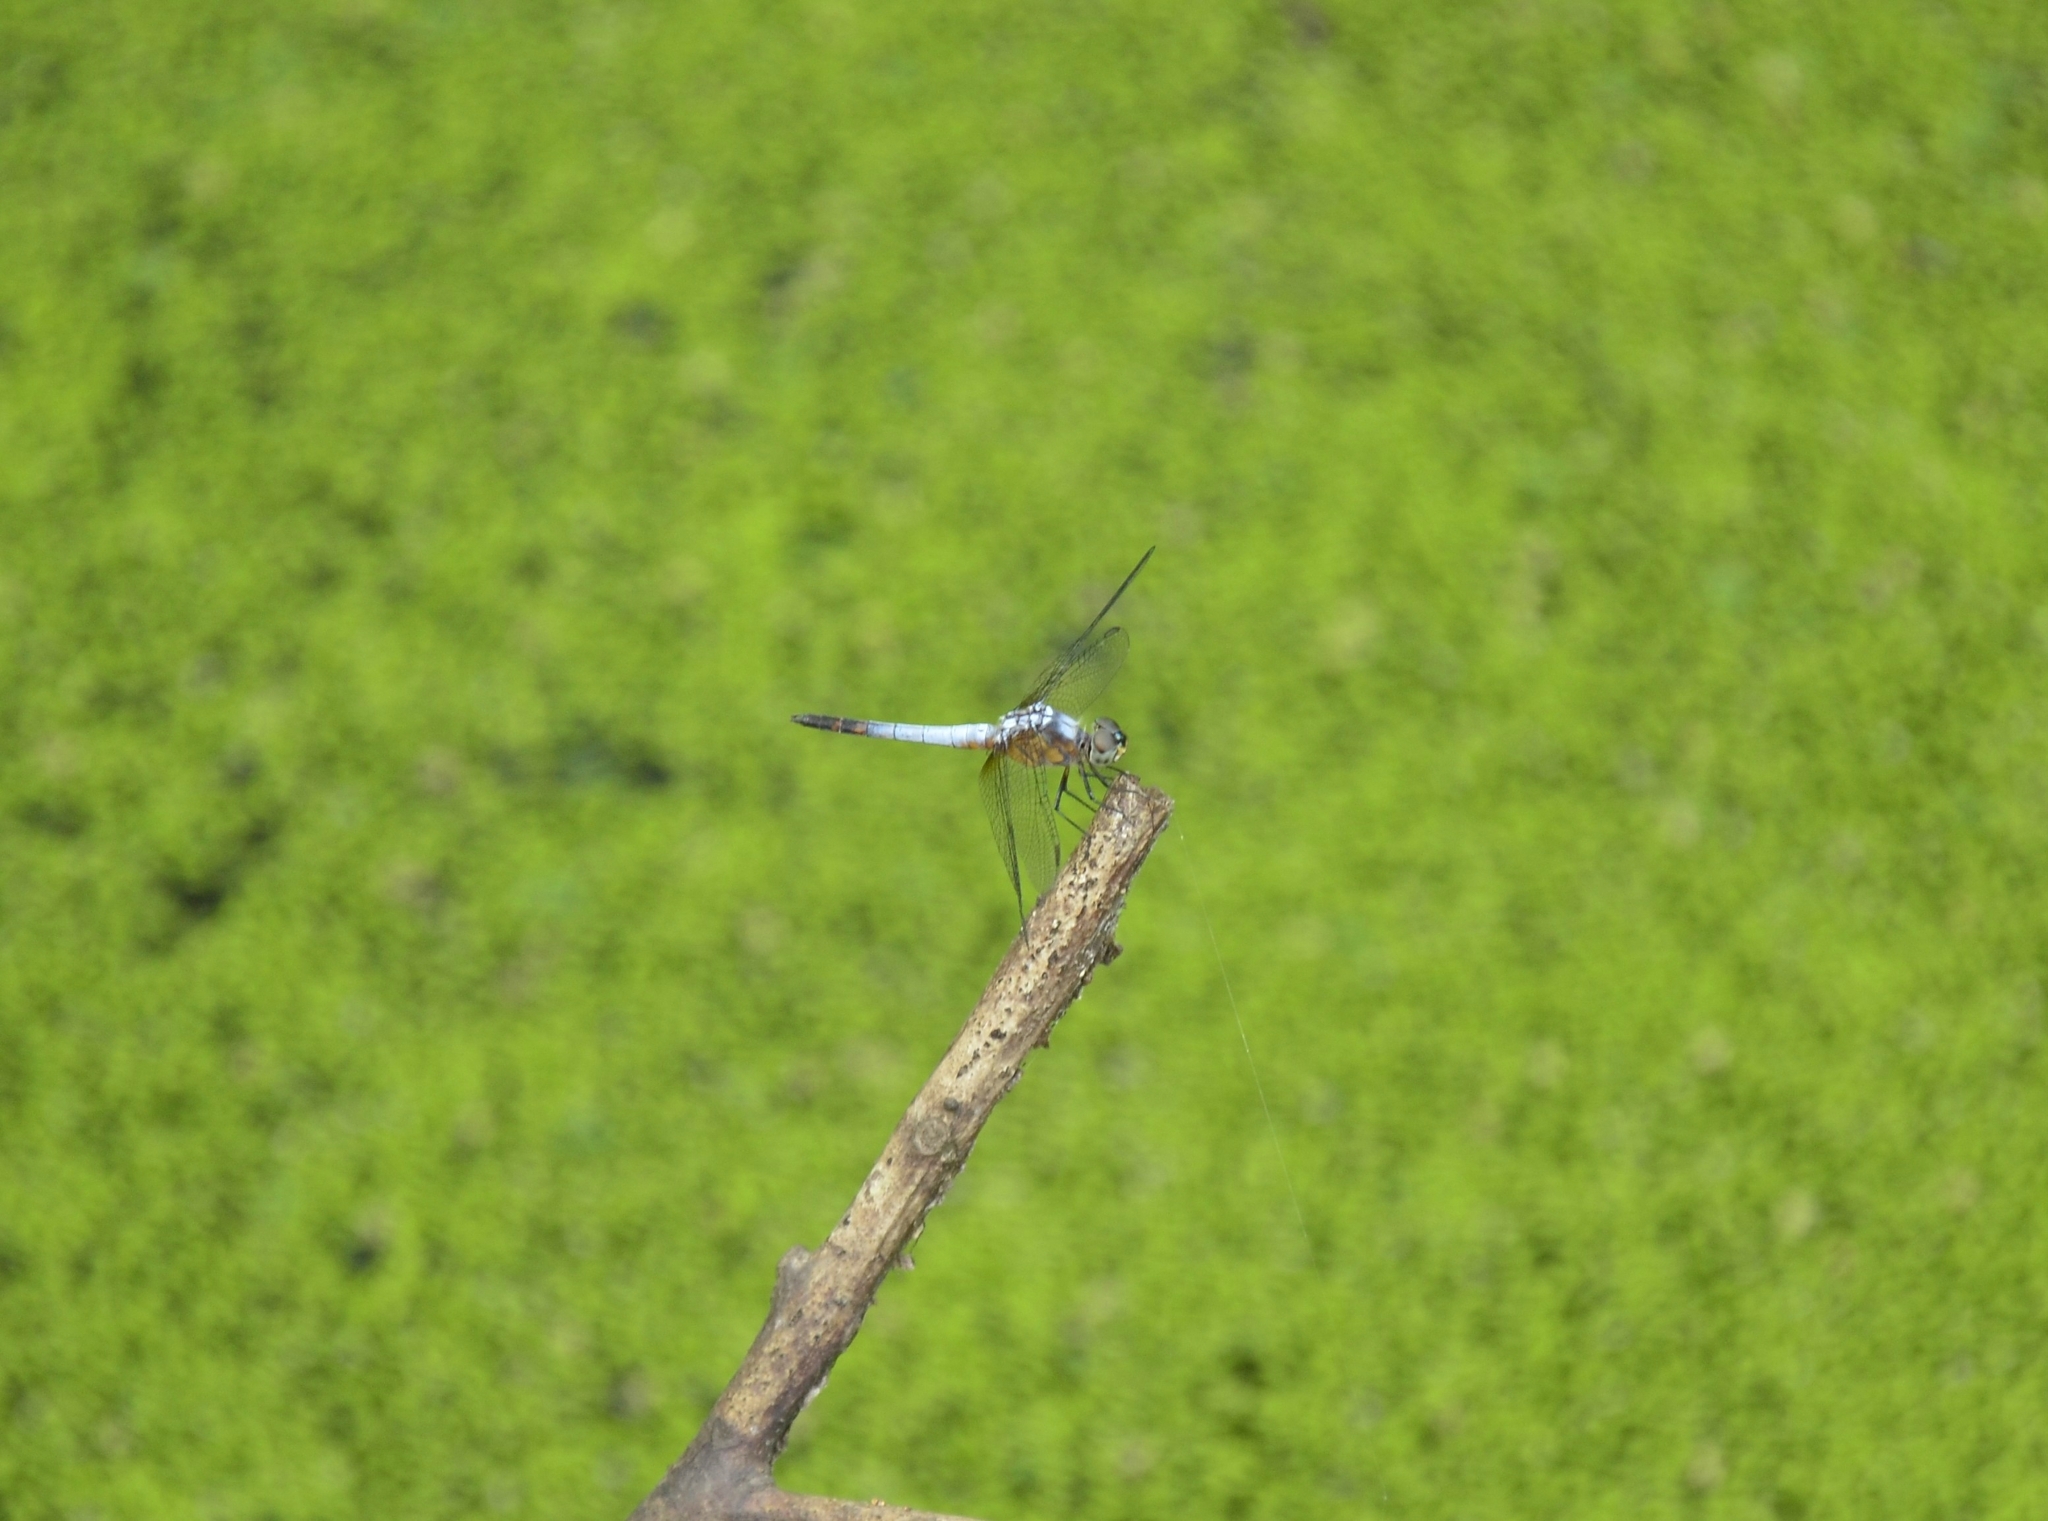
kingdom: Animalia
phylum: Arthropoda
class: Insecta
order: Odonata
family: Libellulidae
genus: Brachydiplax
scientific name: Brachydiplax chalybea
